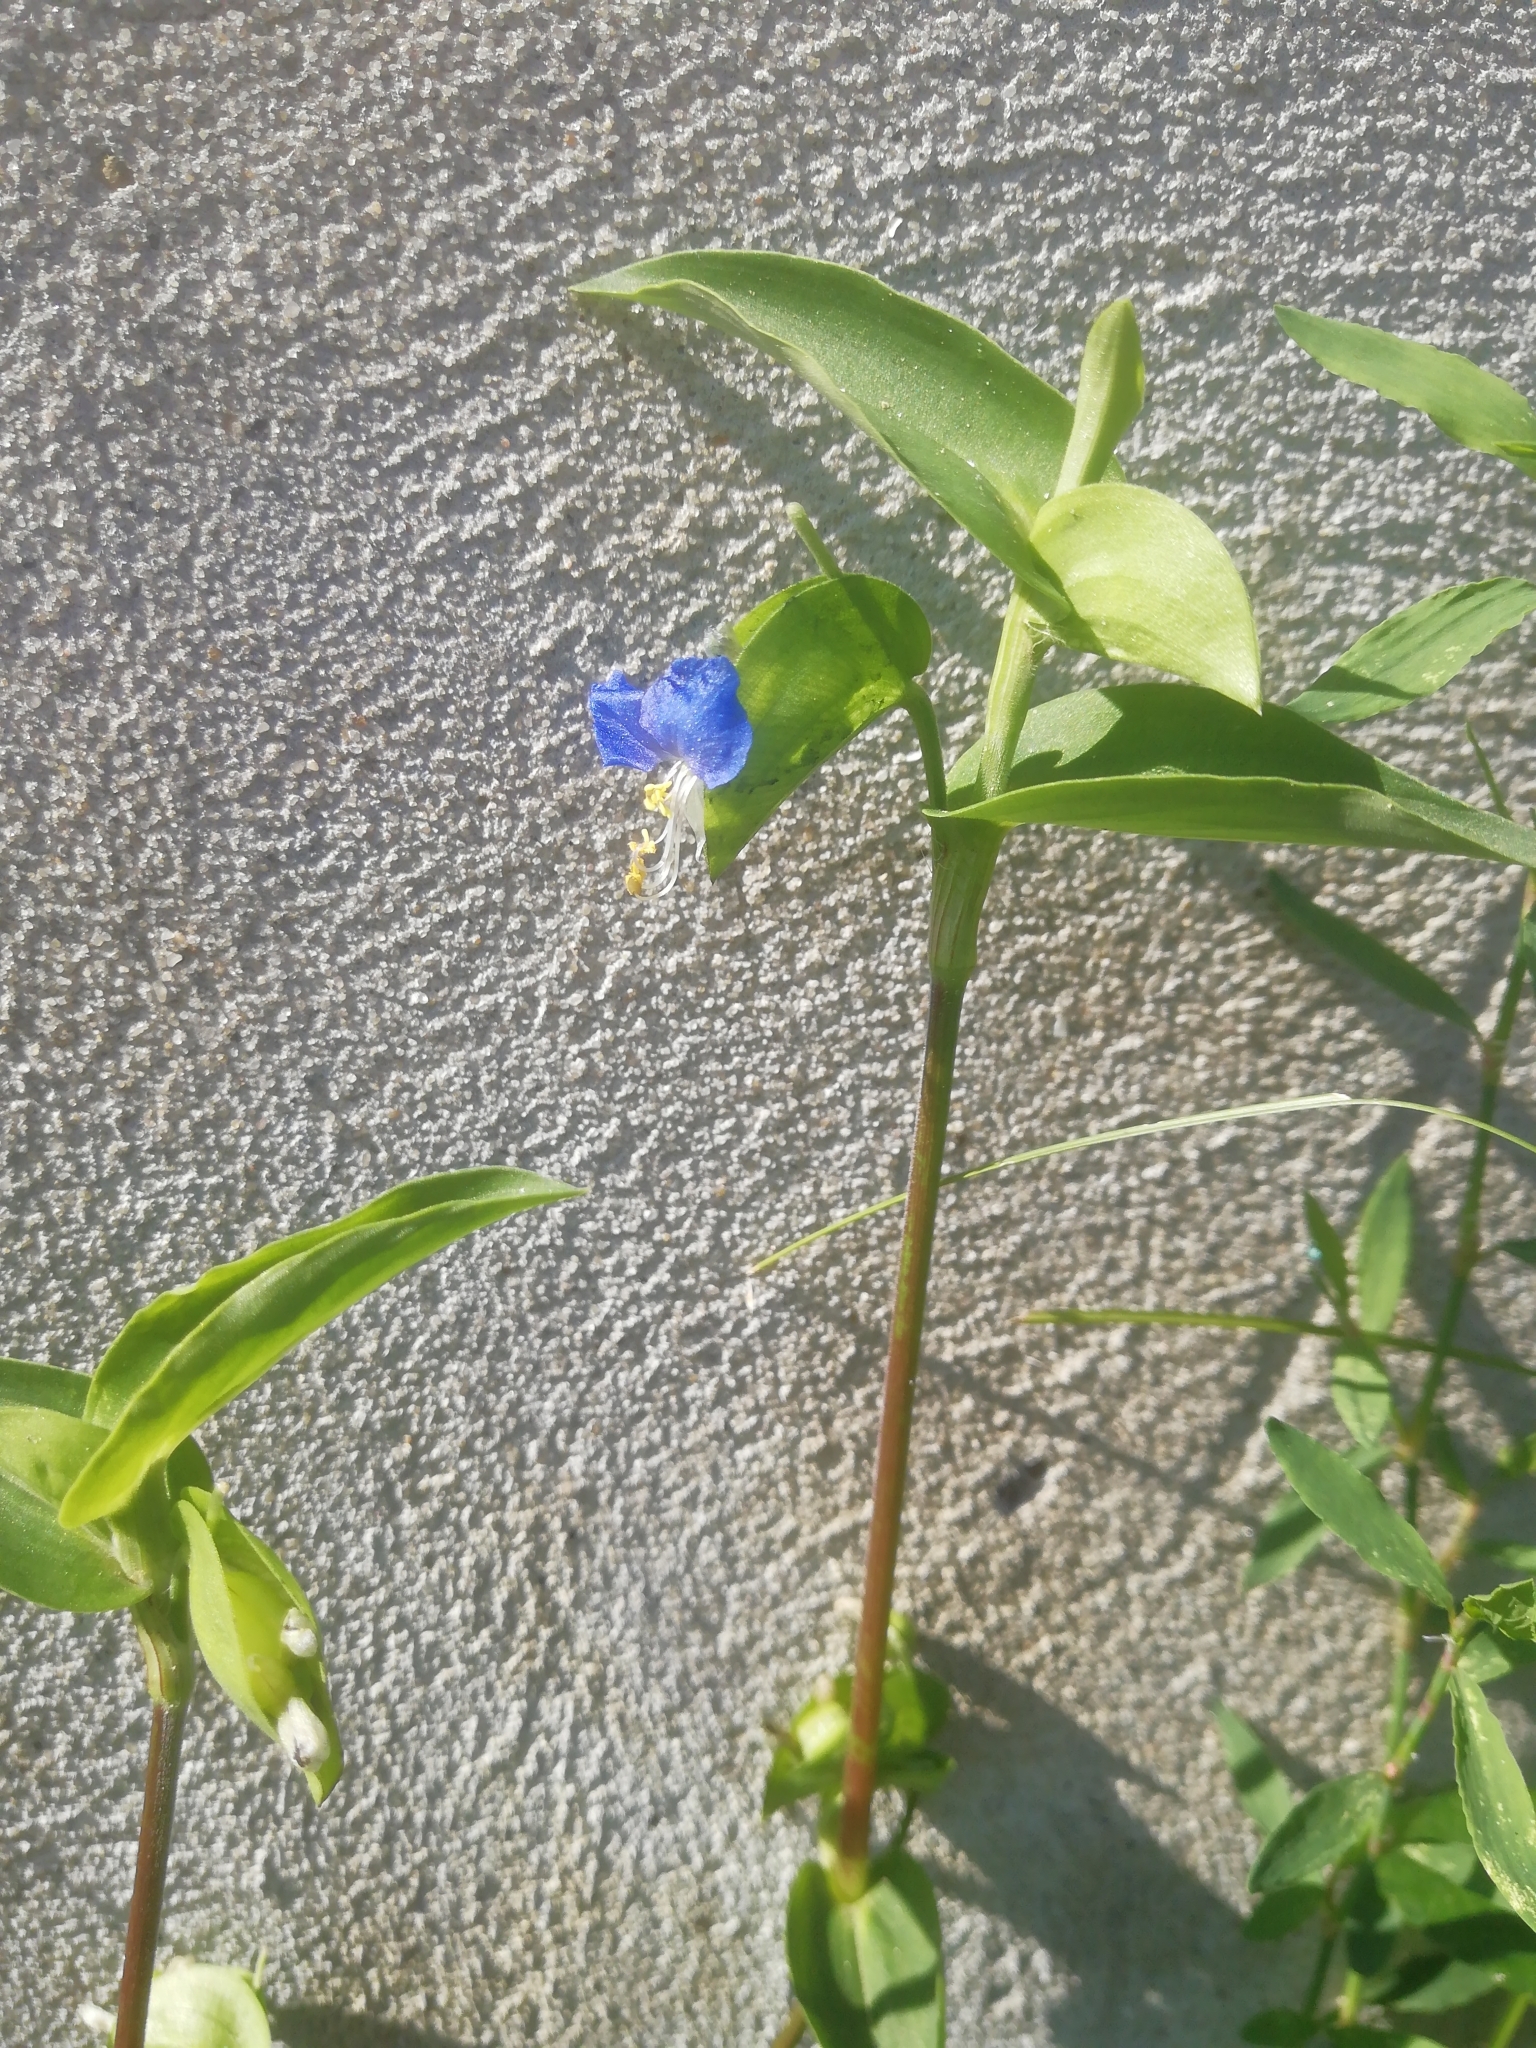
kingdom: Plantae
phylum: Tracheophyta
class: Liliopsida
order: Commelinales
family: Commelinaceae
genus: Commelina
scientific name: Commelina communis
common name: Asiatic dayflower
